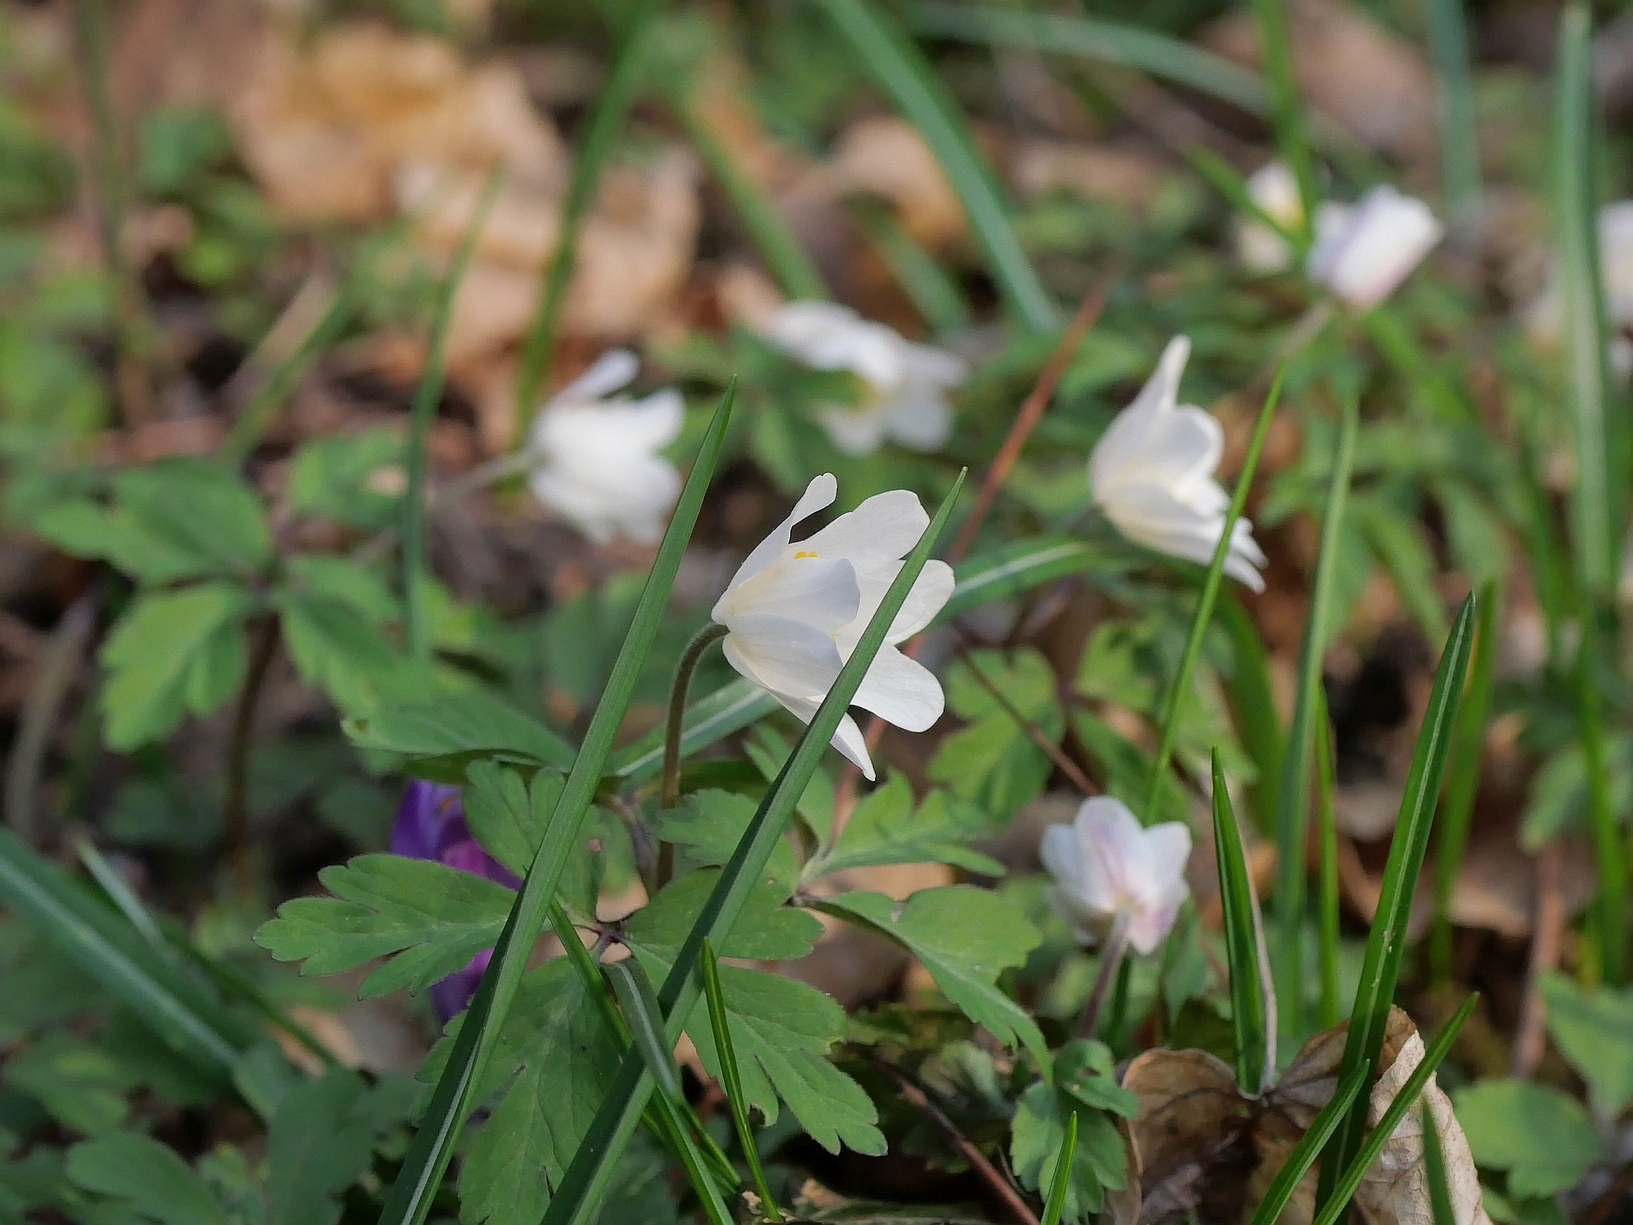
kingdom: Plantae
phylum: Tracheophyta
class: Magnoliopsida
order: Ranunculales
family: Ranunculaceae
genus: Anemone
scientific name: Anemone nemorosa
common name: Wood anemone
